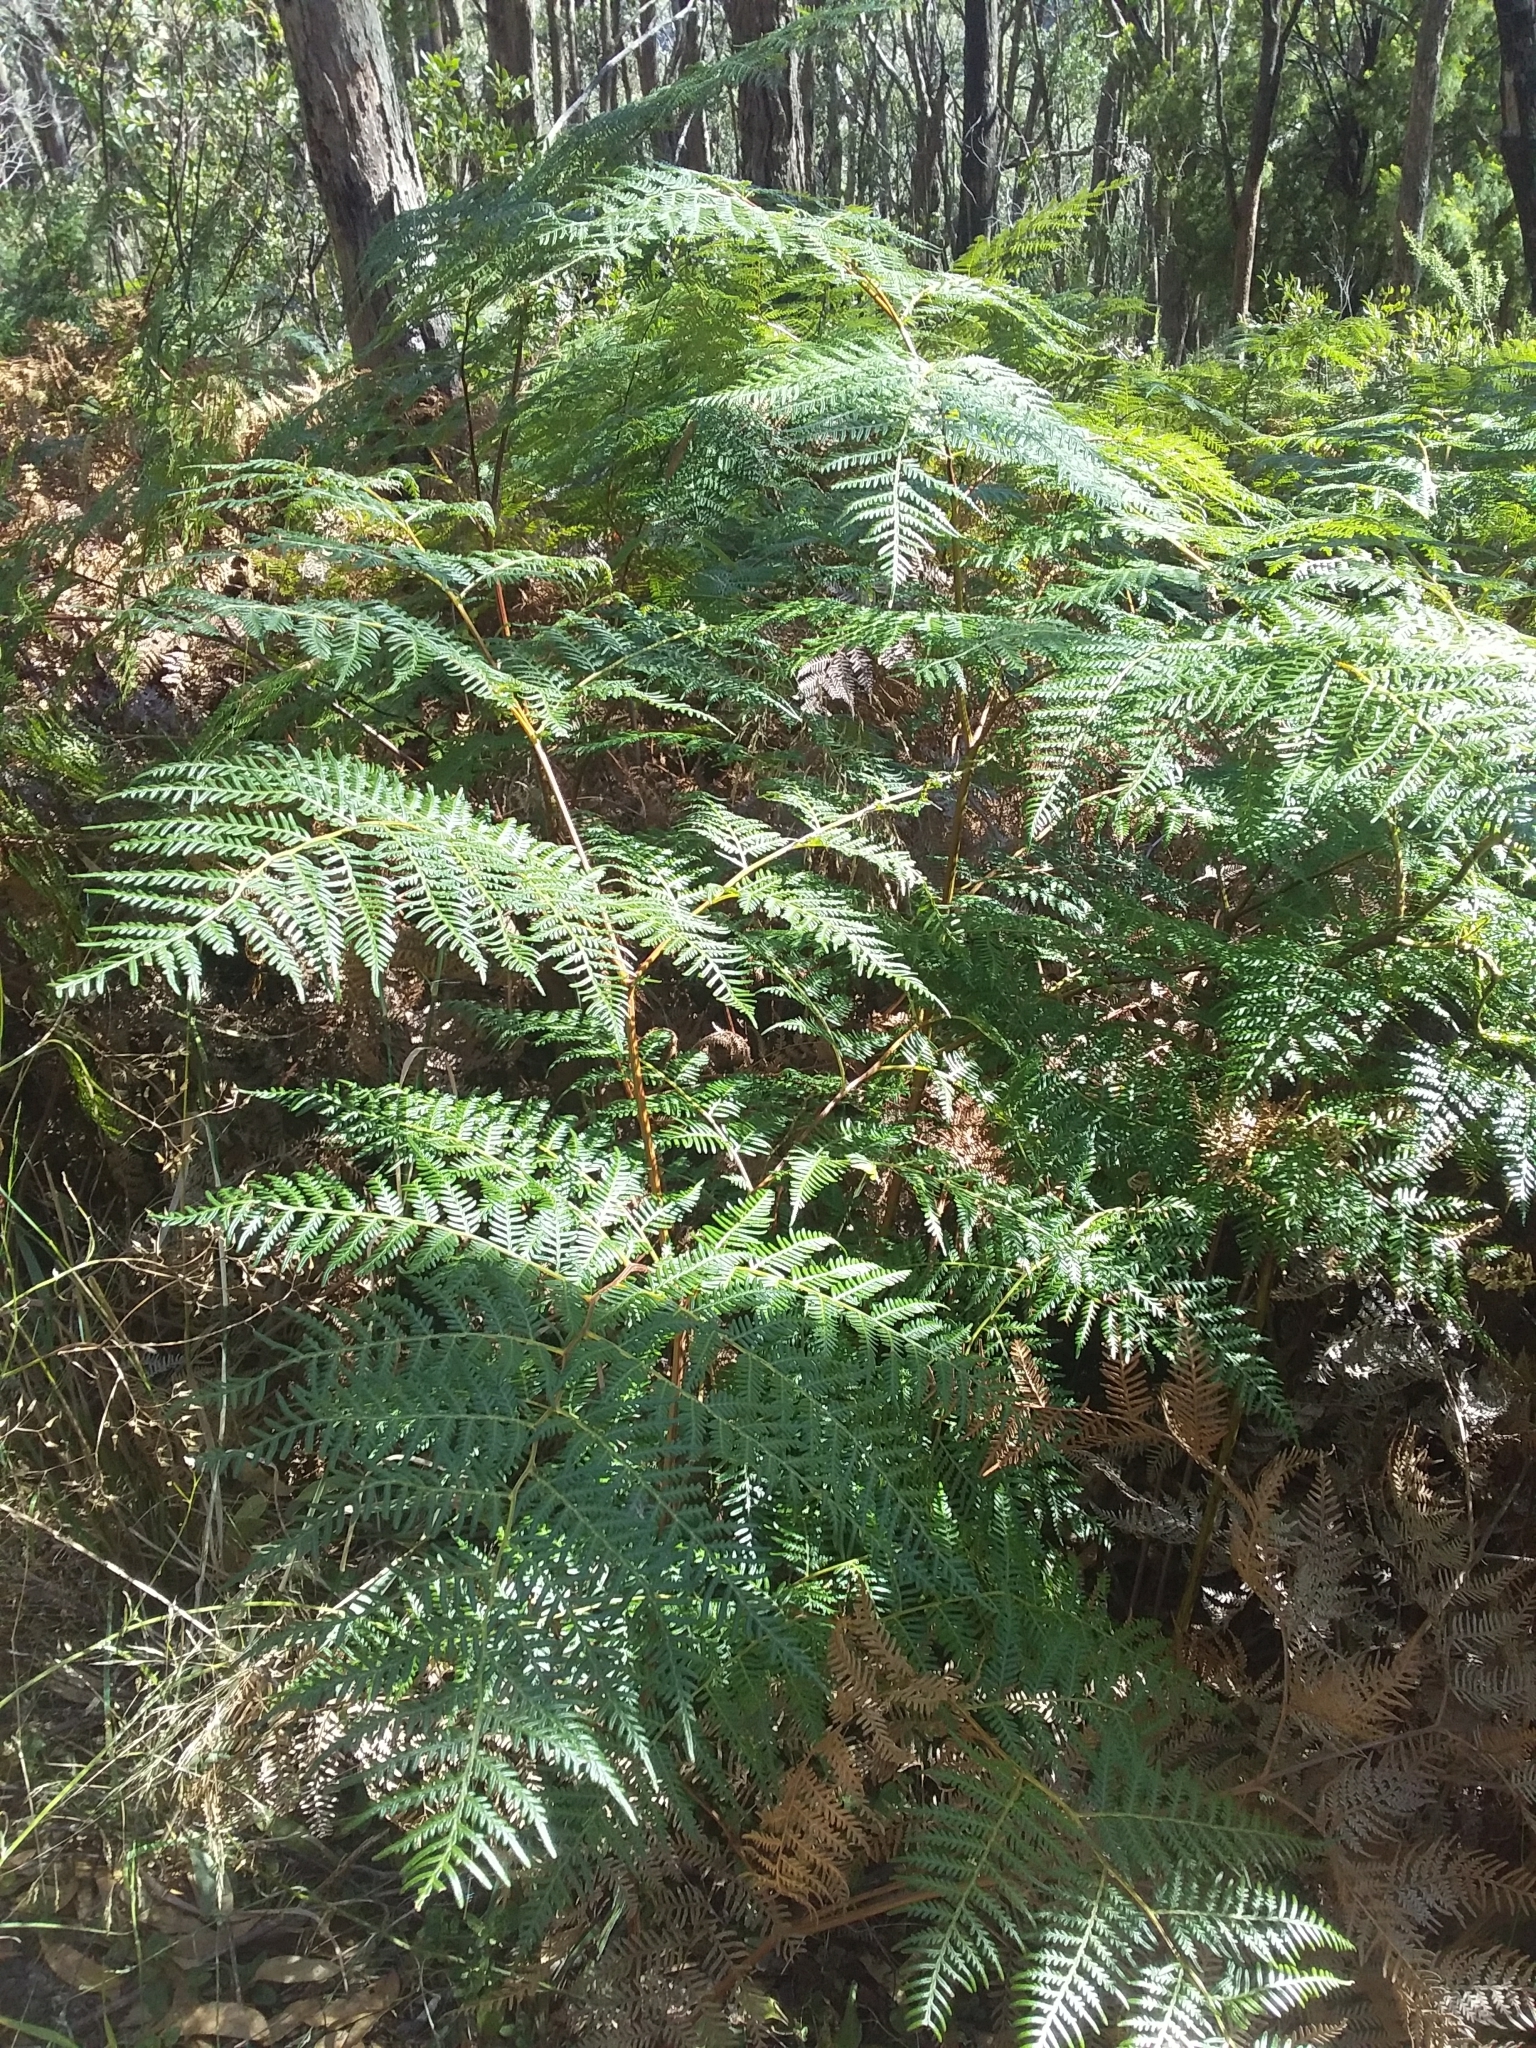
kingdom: Plantae
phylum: Tracheophyta
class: Polypodiopsida
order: Polypodiales
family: Dennstaedtiaceae
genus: Pteridium
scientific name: Pteridium esculentum
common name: Bracken fern
